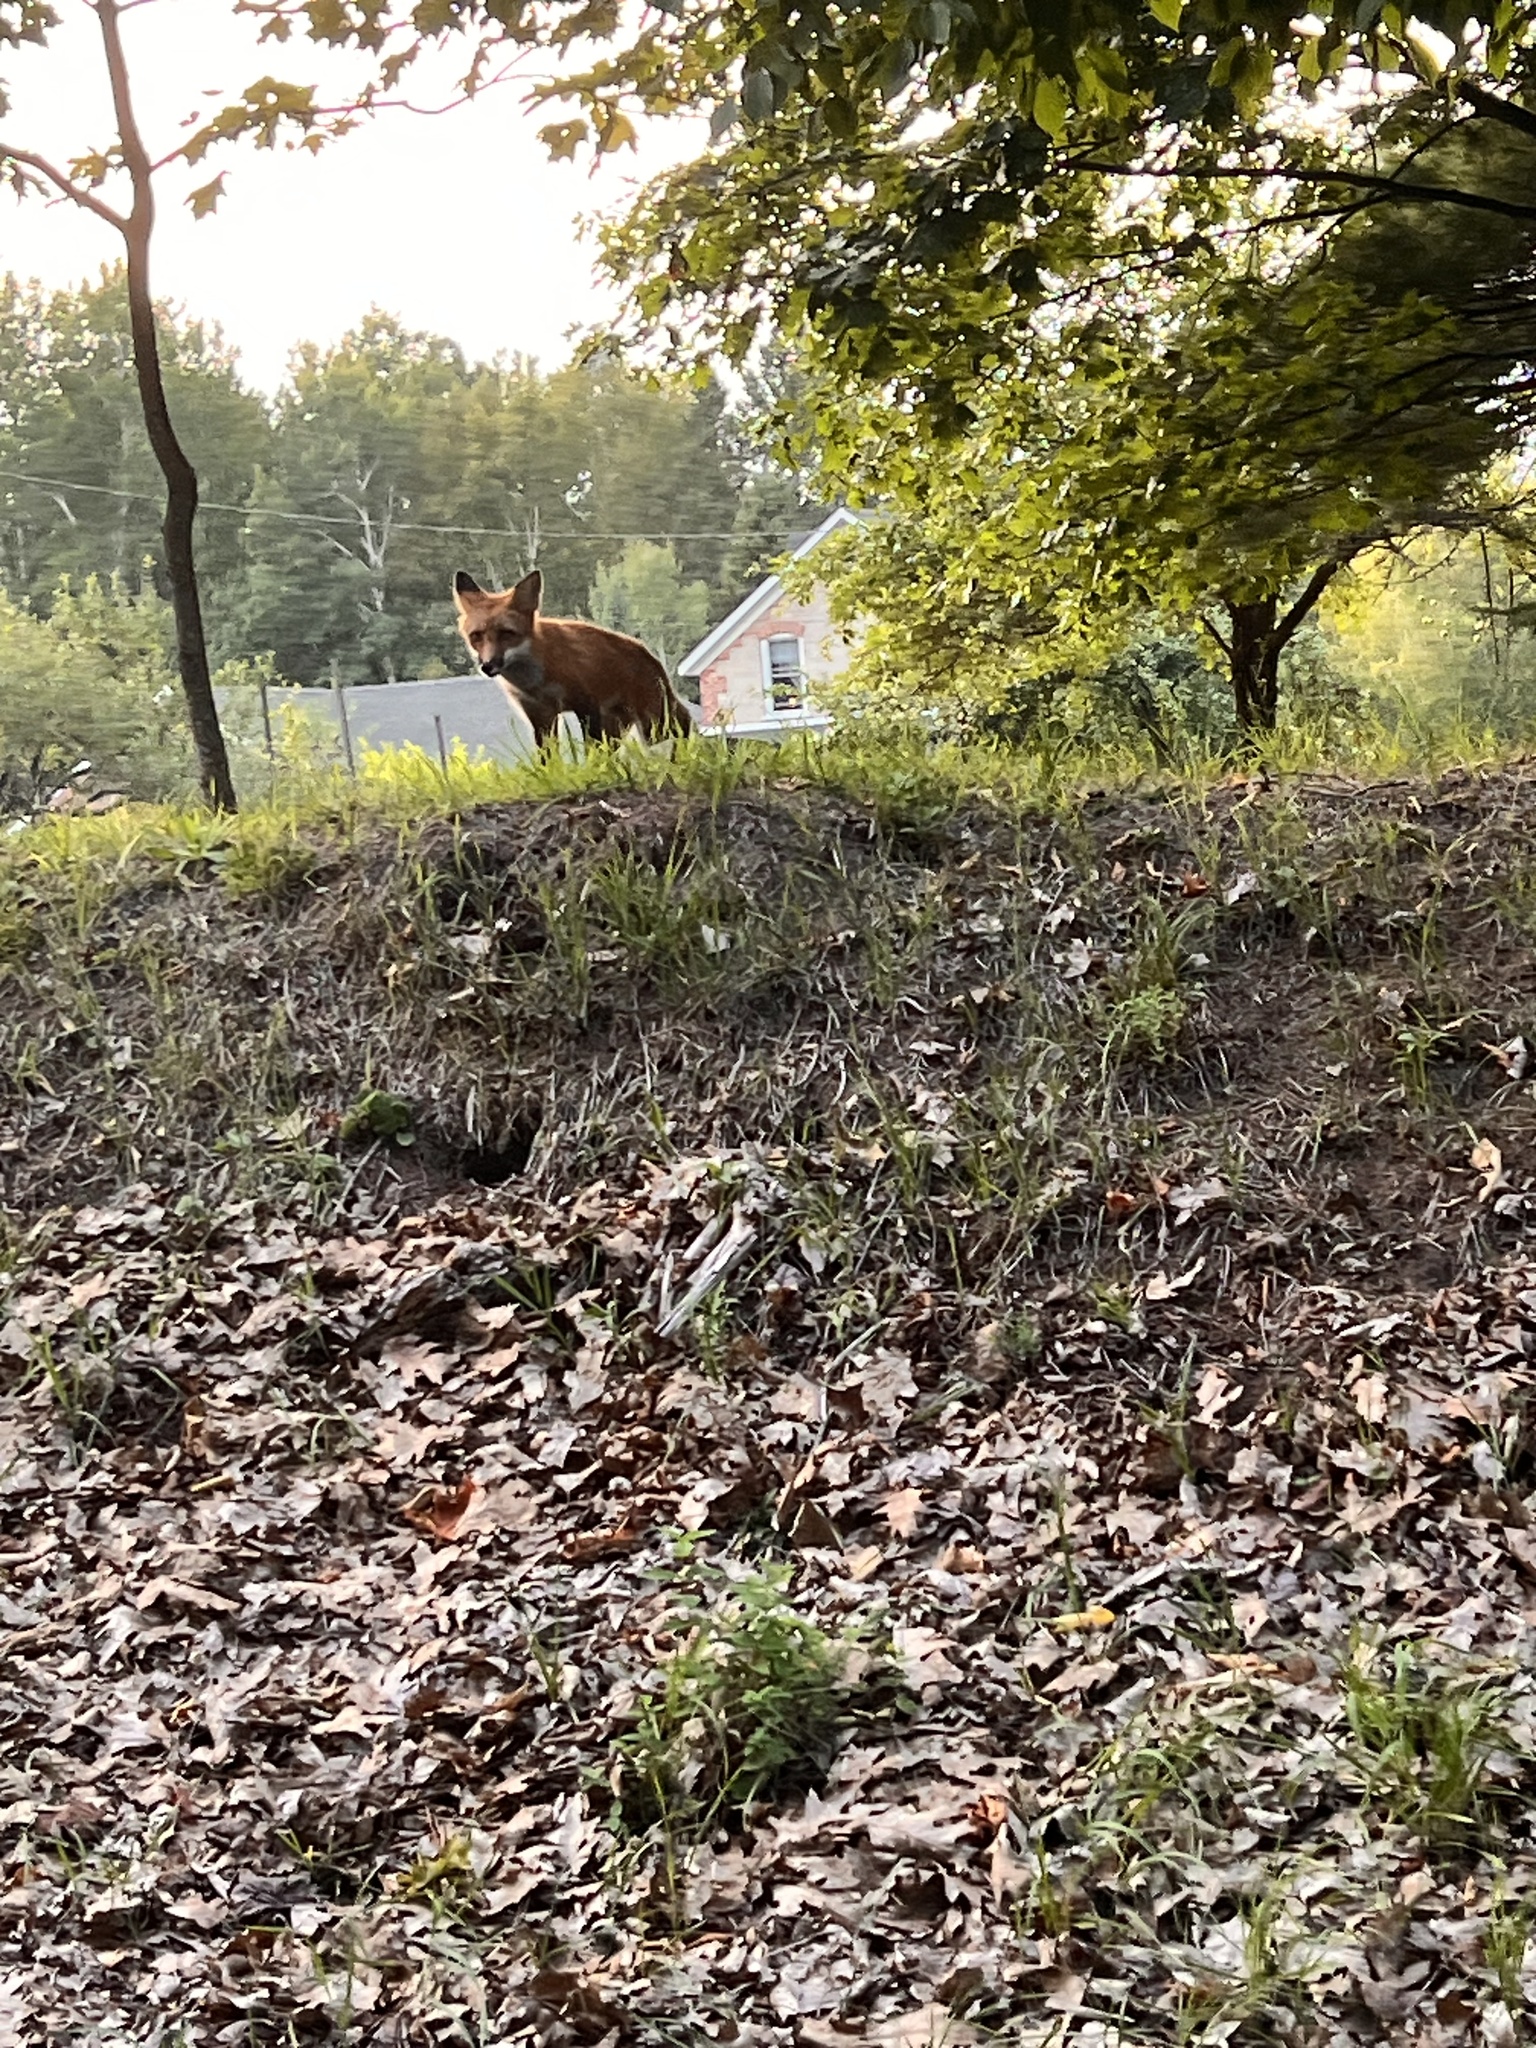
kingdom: Animalia
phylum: Chordata
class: Mammalia
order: Carnivora
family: Canidae
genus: Vulpes
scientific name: Vulpes vulpes
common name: Red fox
